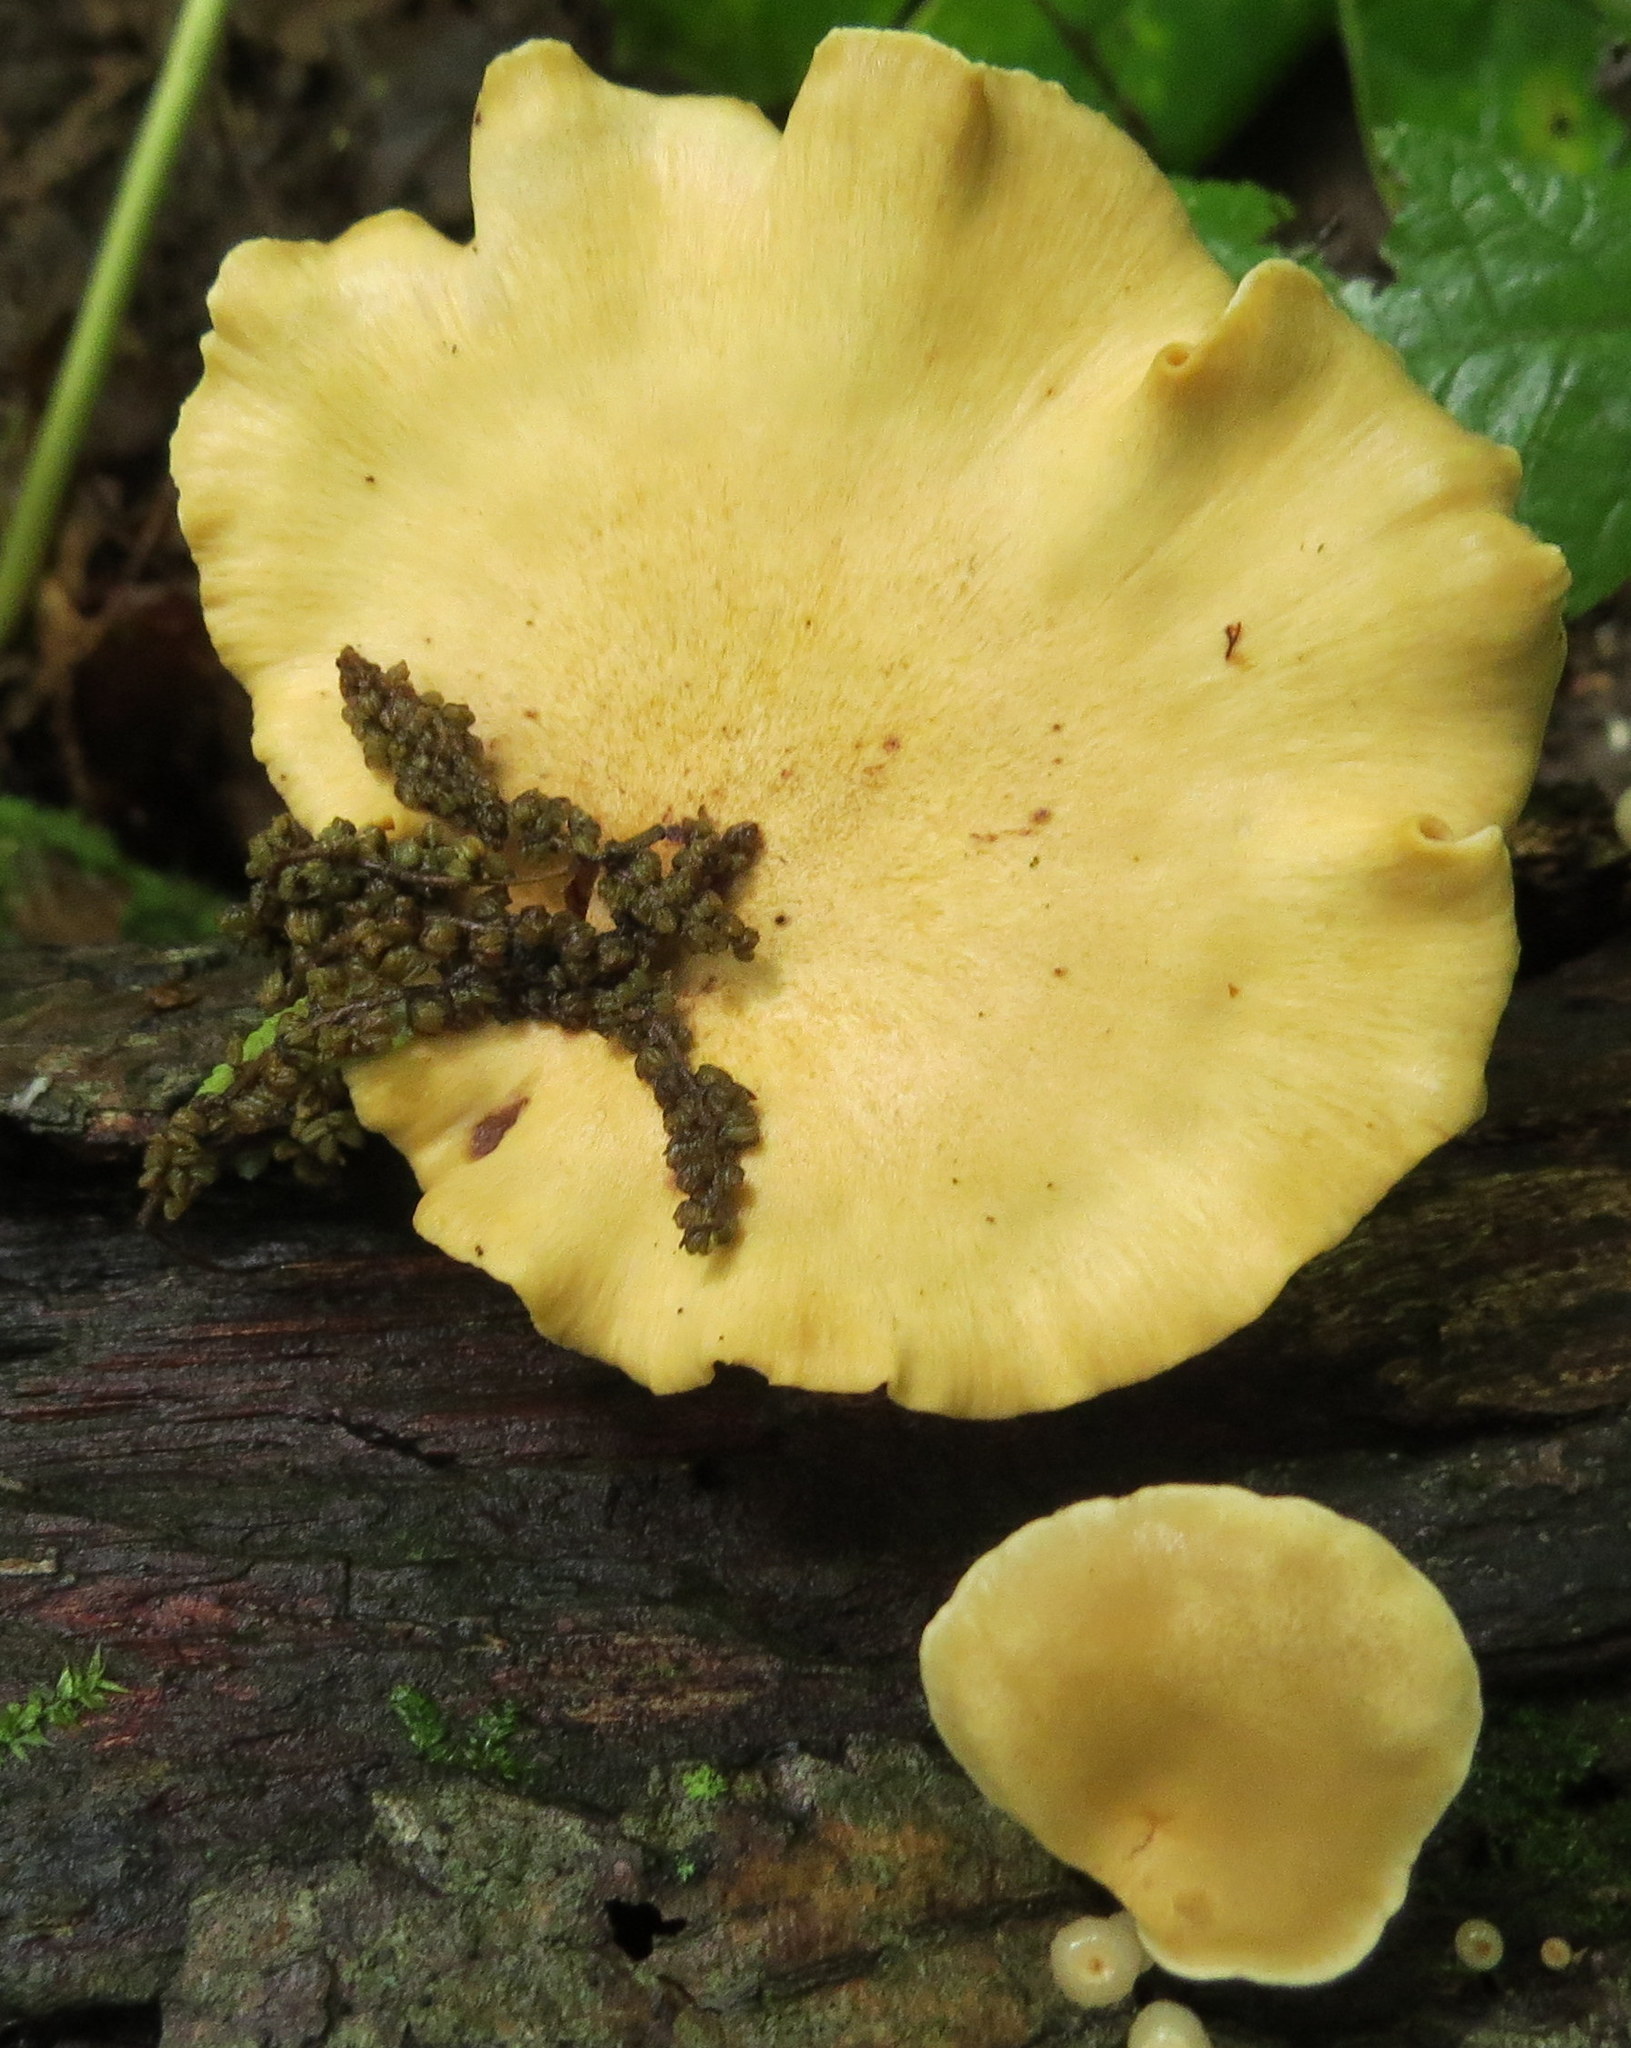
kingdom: Fungi
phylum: Basidiomycota
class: Agaricomycetes
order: Polyporales
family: Polyporaceae
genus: Cerioporus
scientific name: Cerioporus leptocephalus
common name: Blackfoot polypore
